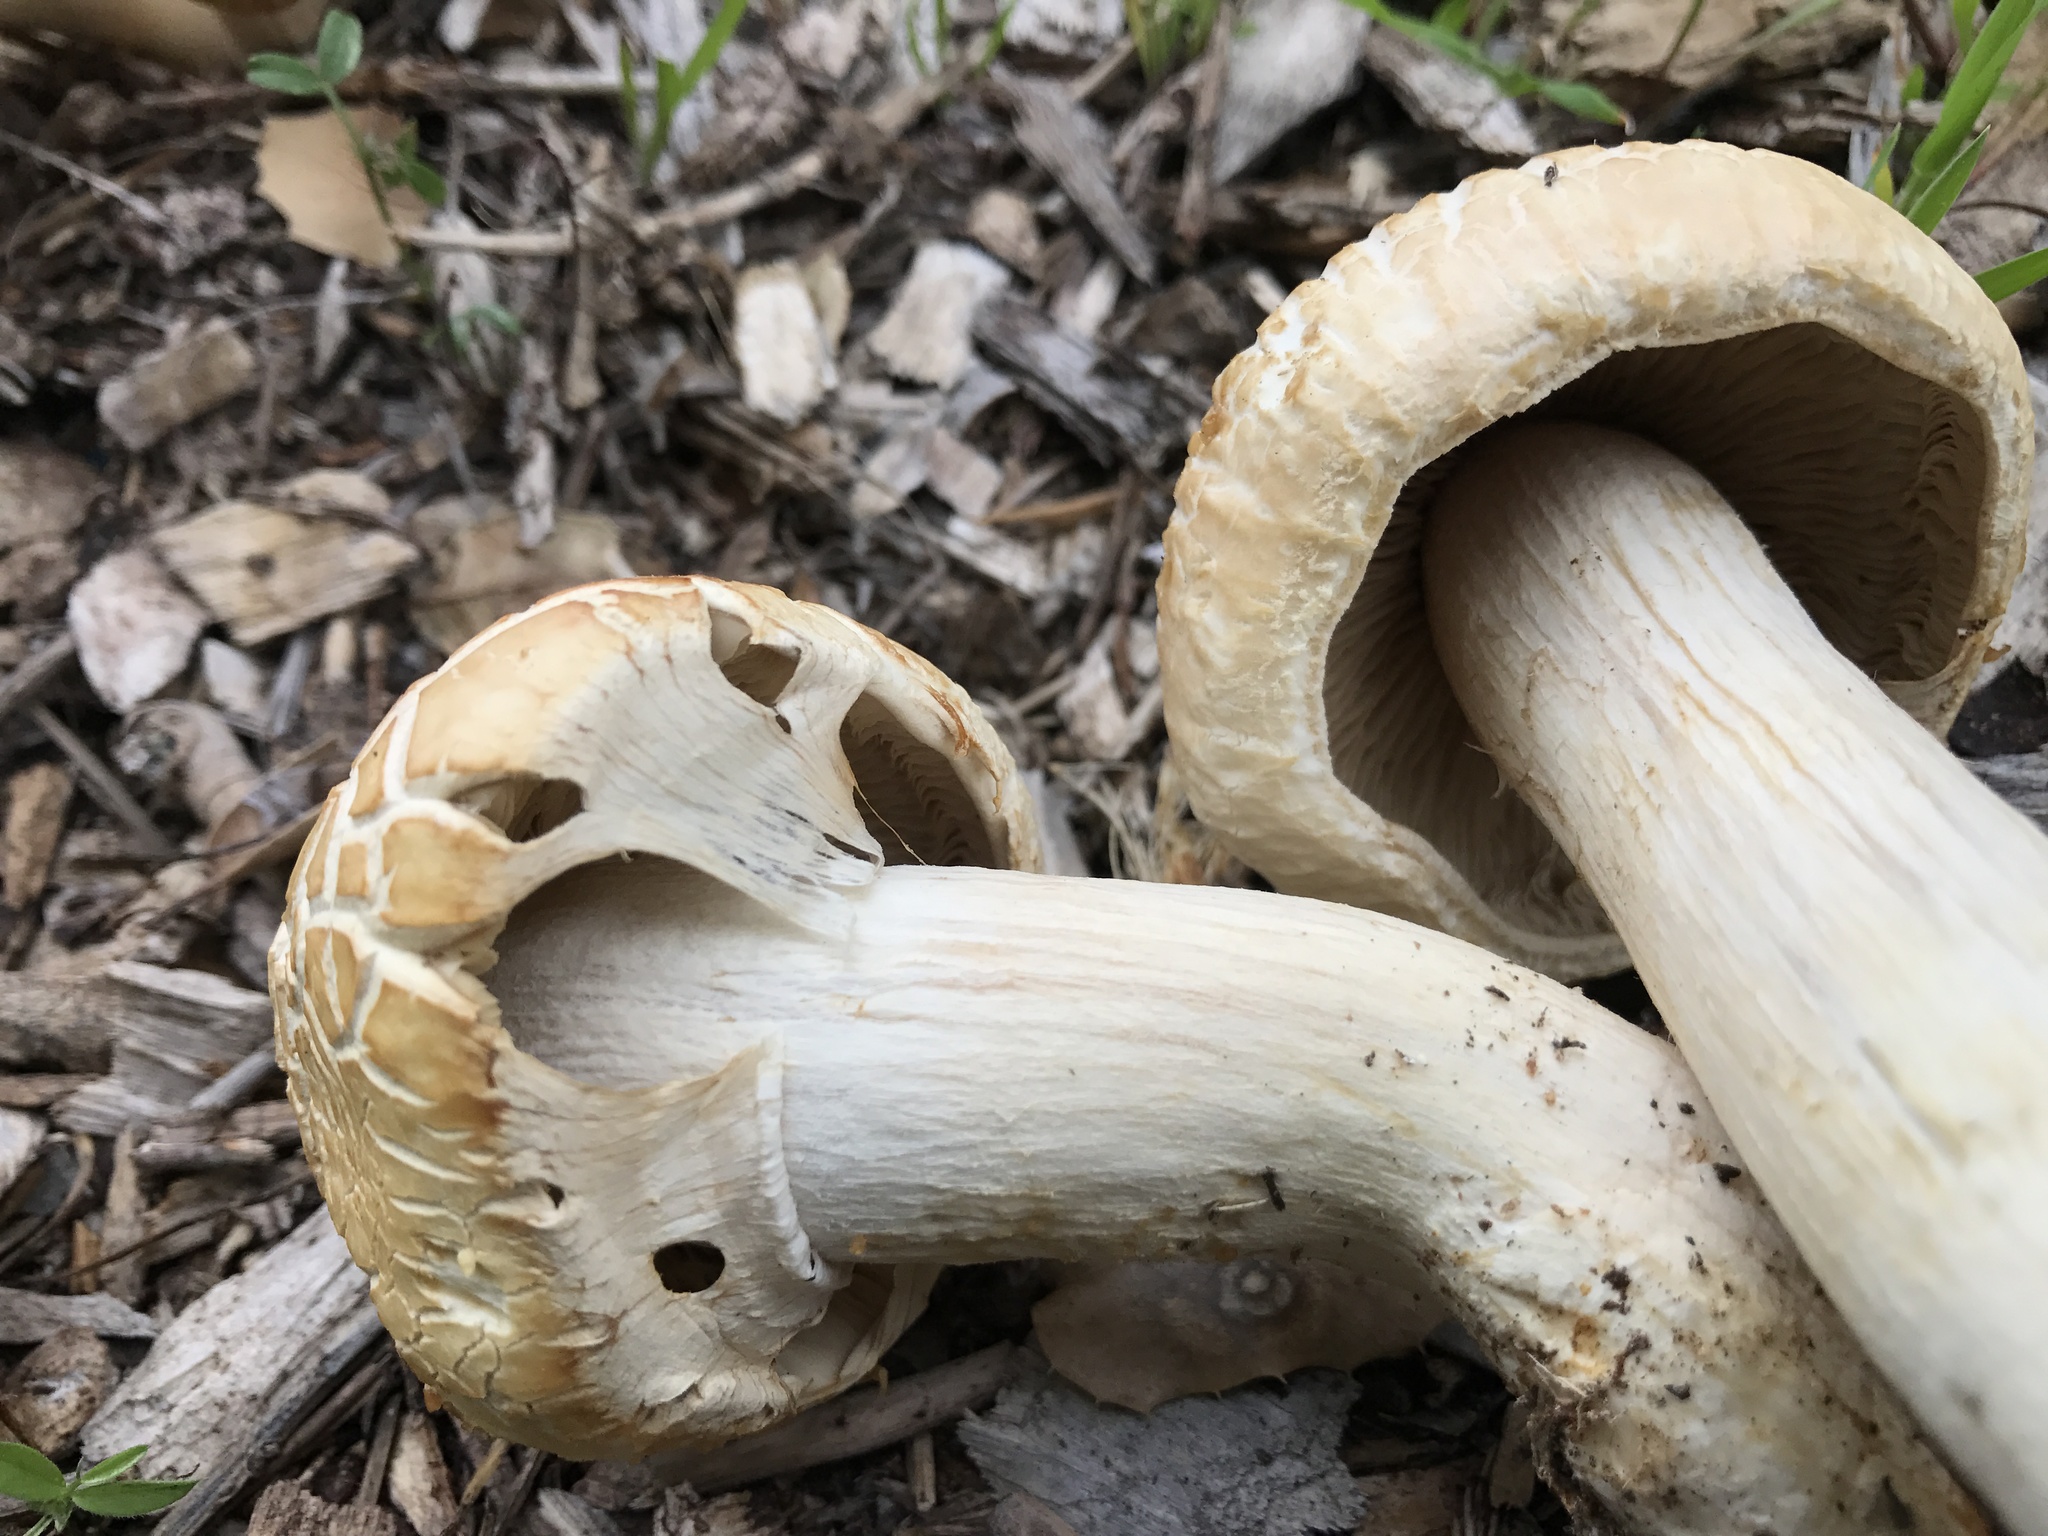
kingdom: Fungi
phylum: Basidiomycota
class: Agaricomycetes
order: Agaricales
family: Strophariaceae
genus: Agrocybe
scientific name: Agrocybe praecox
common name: Spring fieldcap
